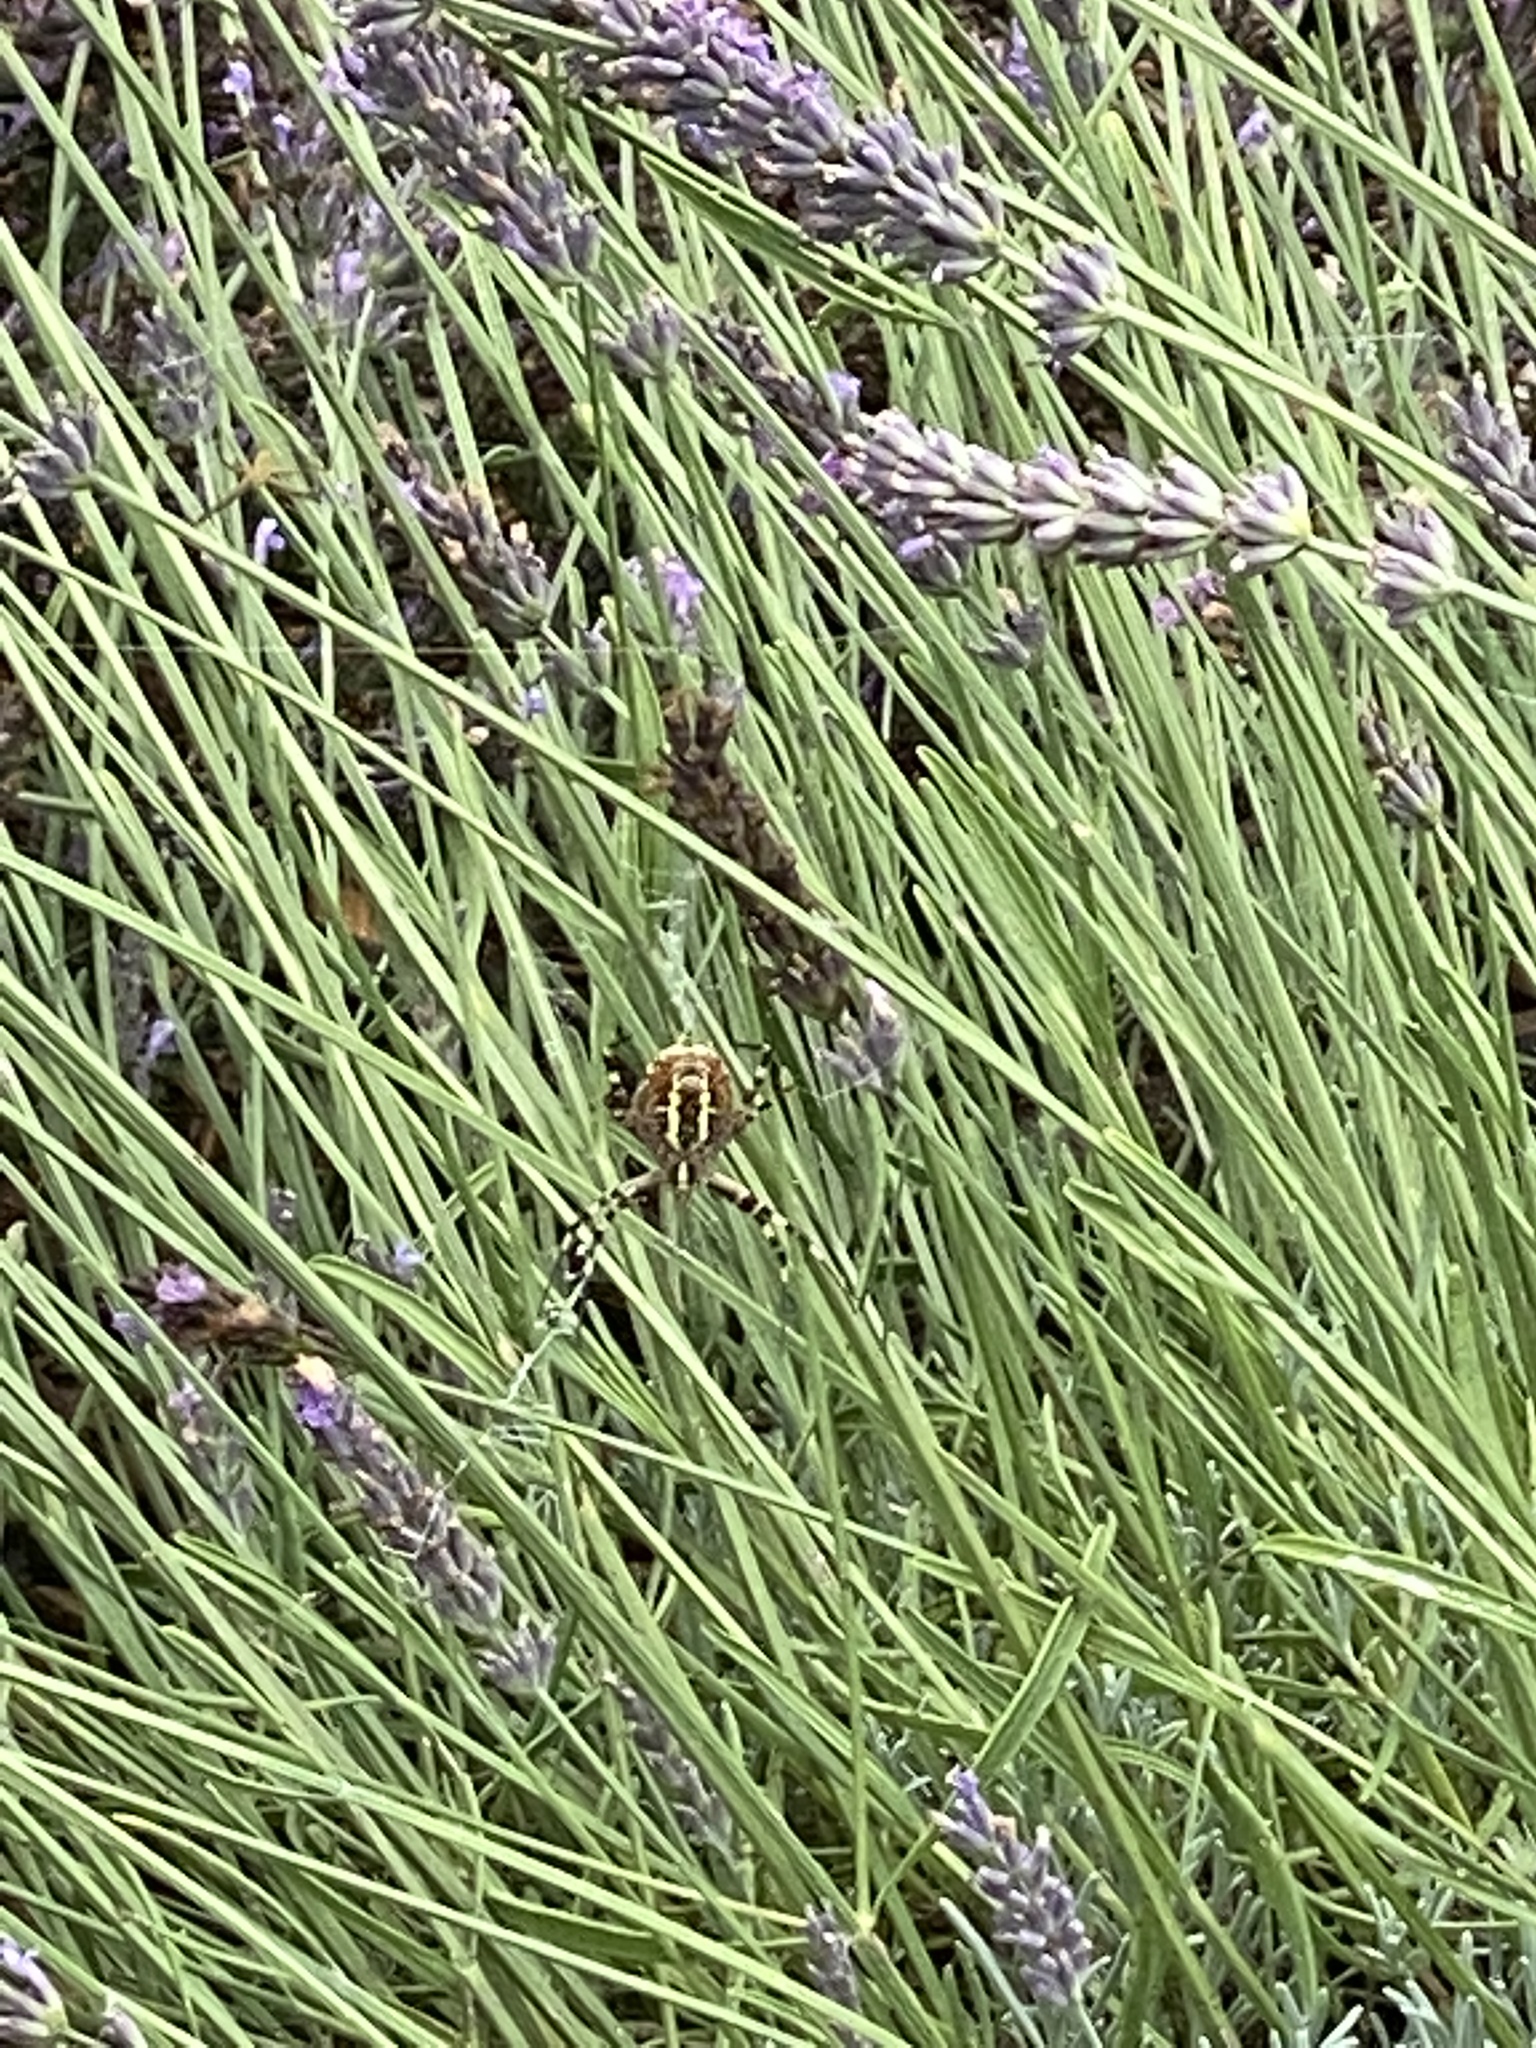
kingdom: Animalia
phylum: Arthropoda
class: Arachnida
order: Araneae
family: Araneidae
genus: Argiope
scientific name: Argiope bruennichi
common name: Wasp spider
